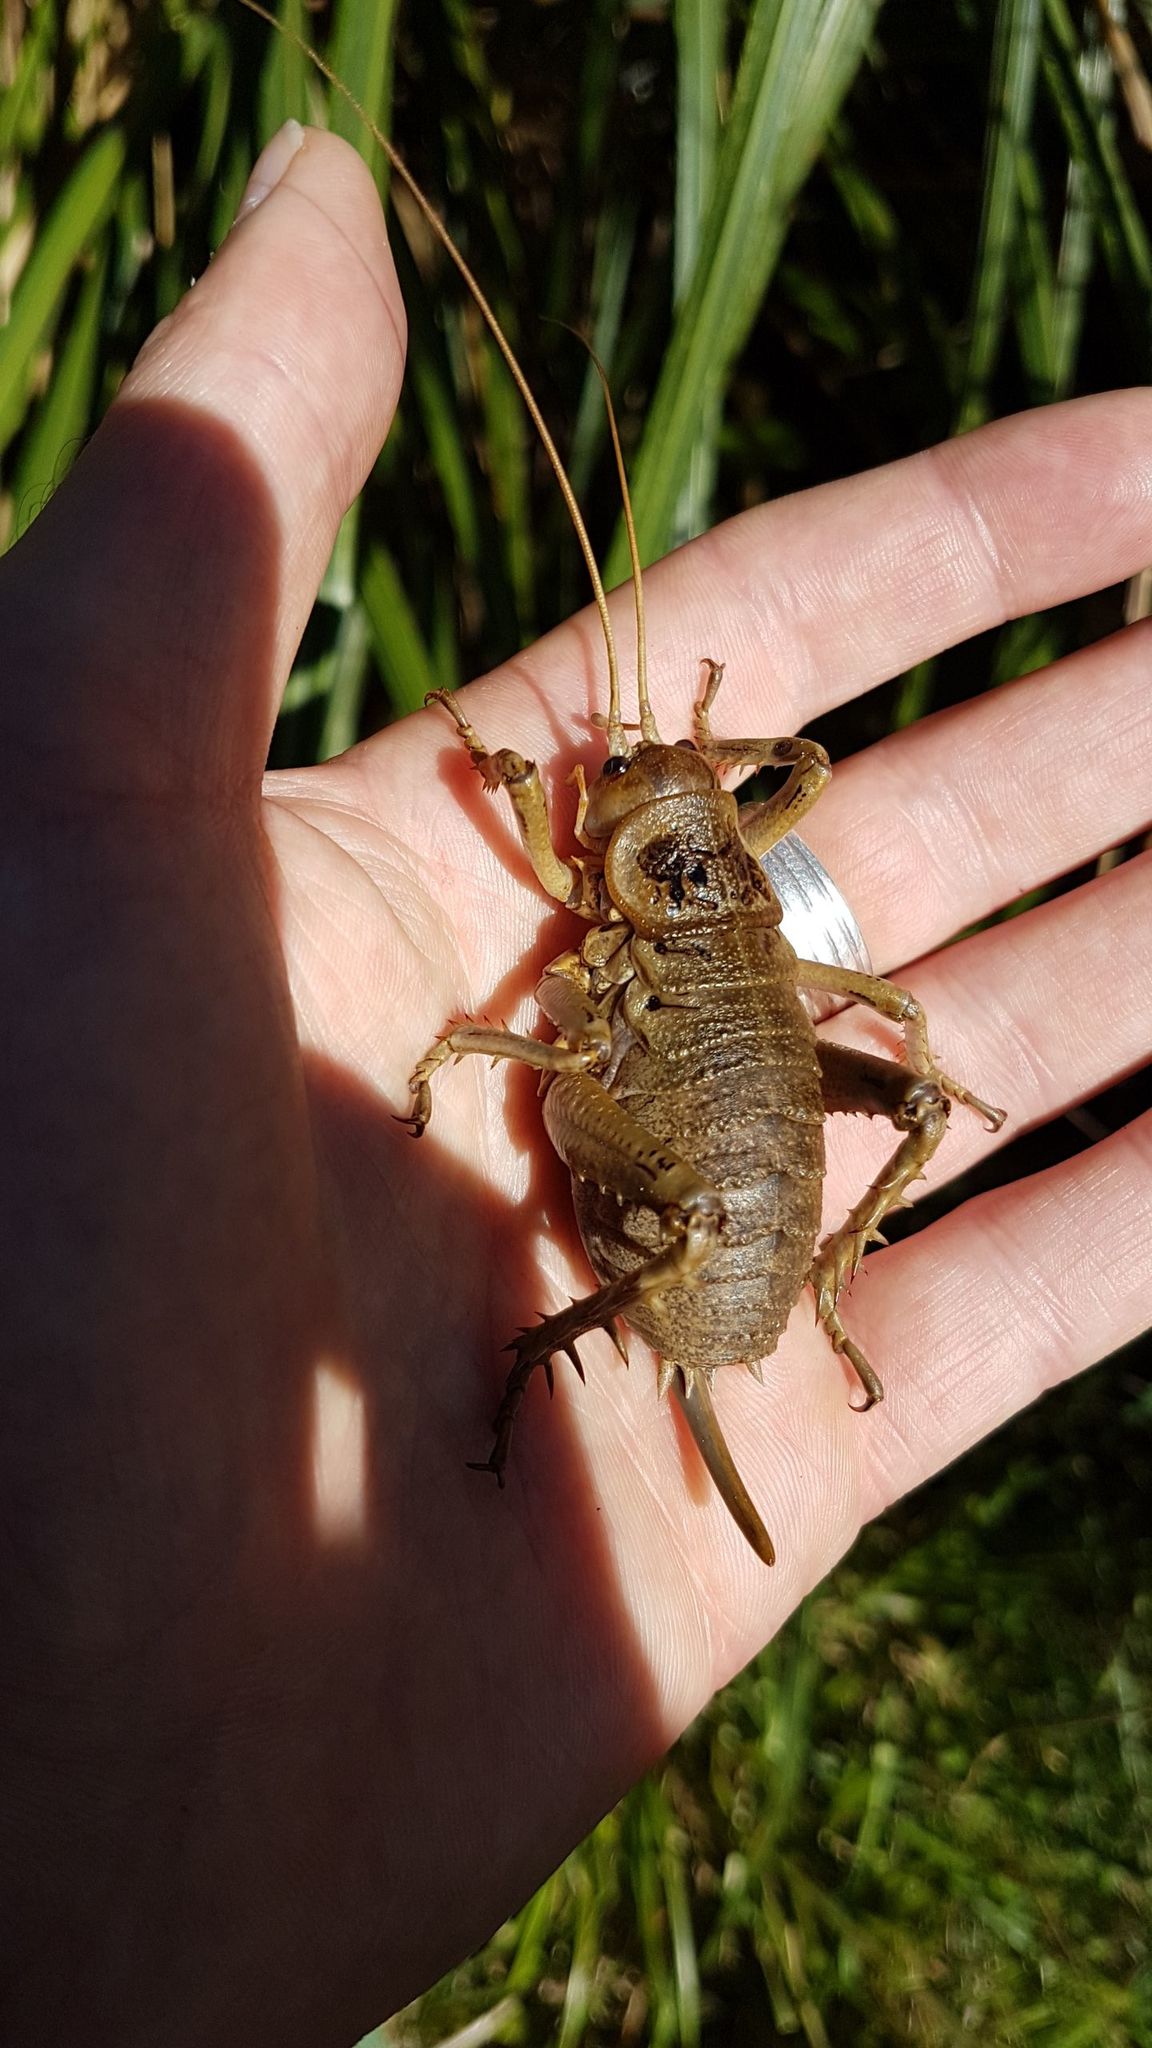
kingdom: Animalia
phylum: Arthropoda
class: Insecta
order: Orthoptera
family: Anostostomatidae
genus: Deinacrida
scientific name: Deinacrida rugosa
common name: Stephens island weta
